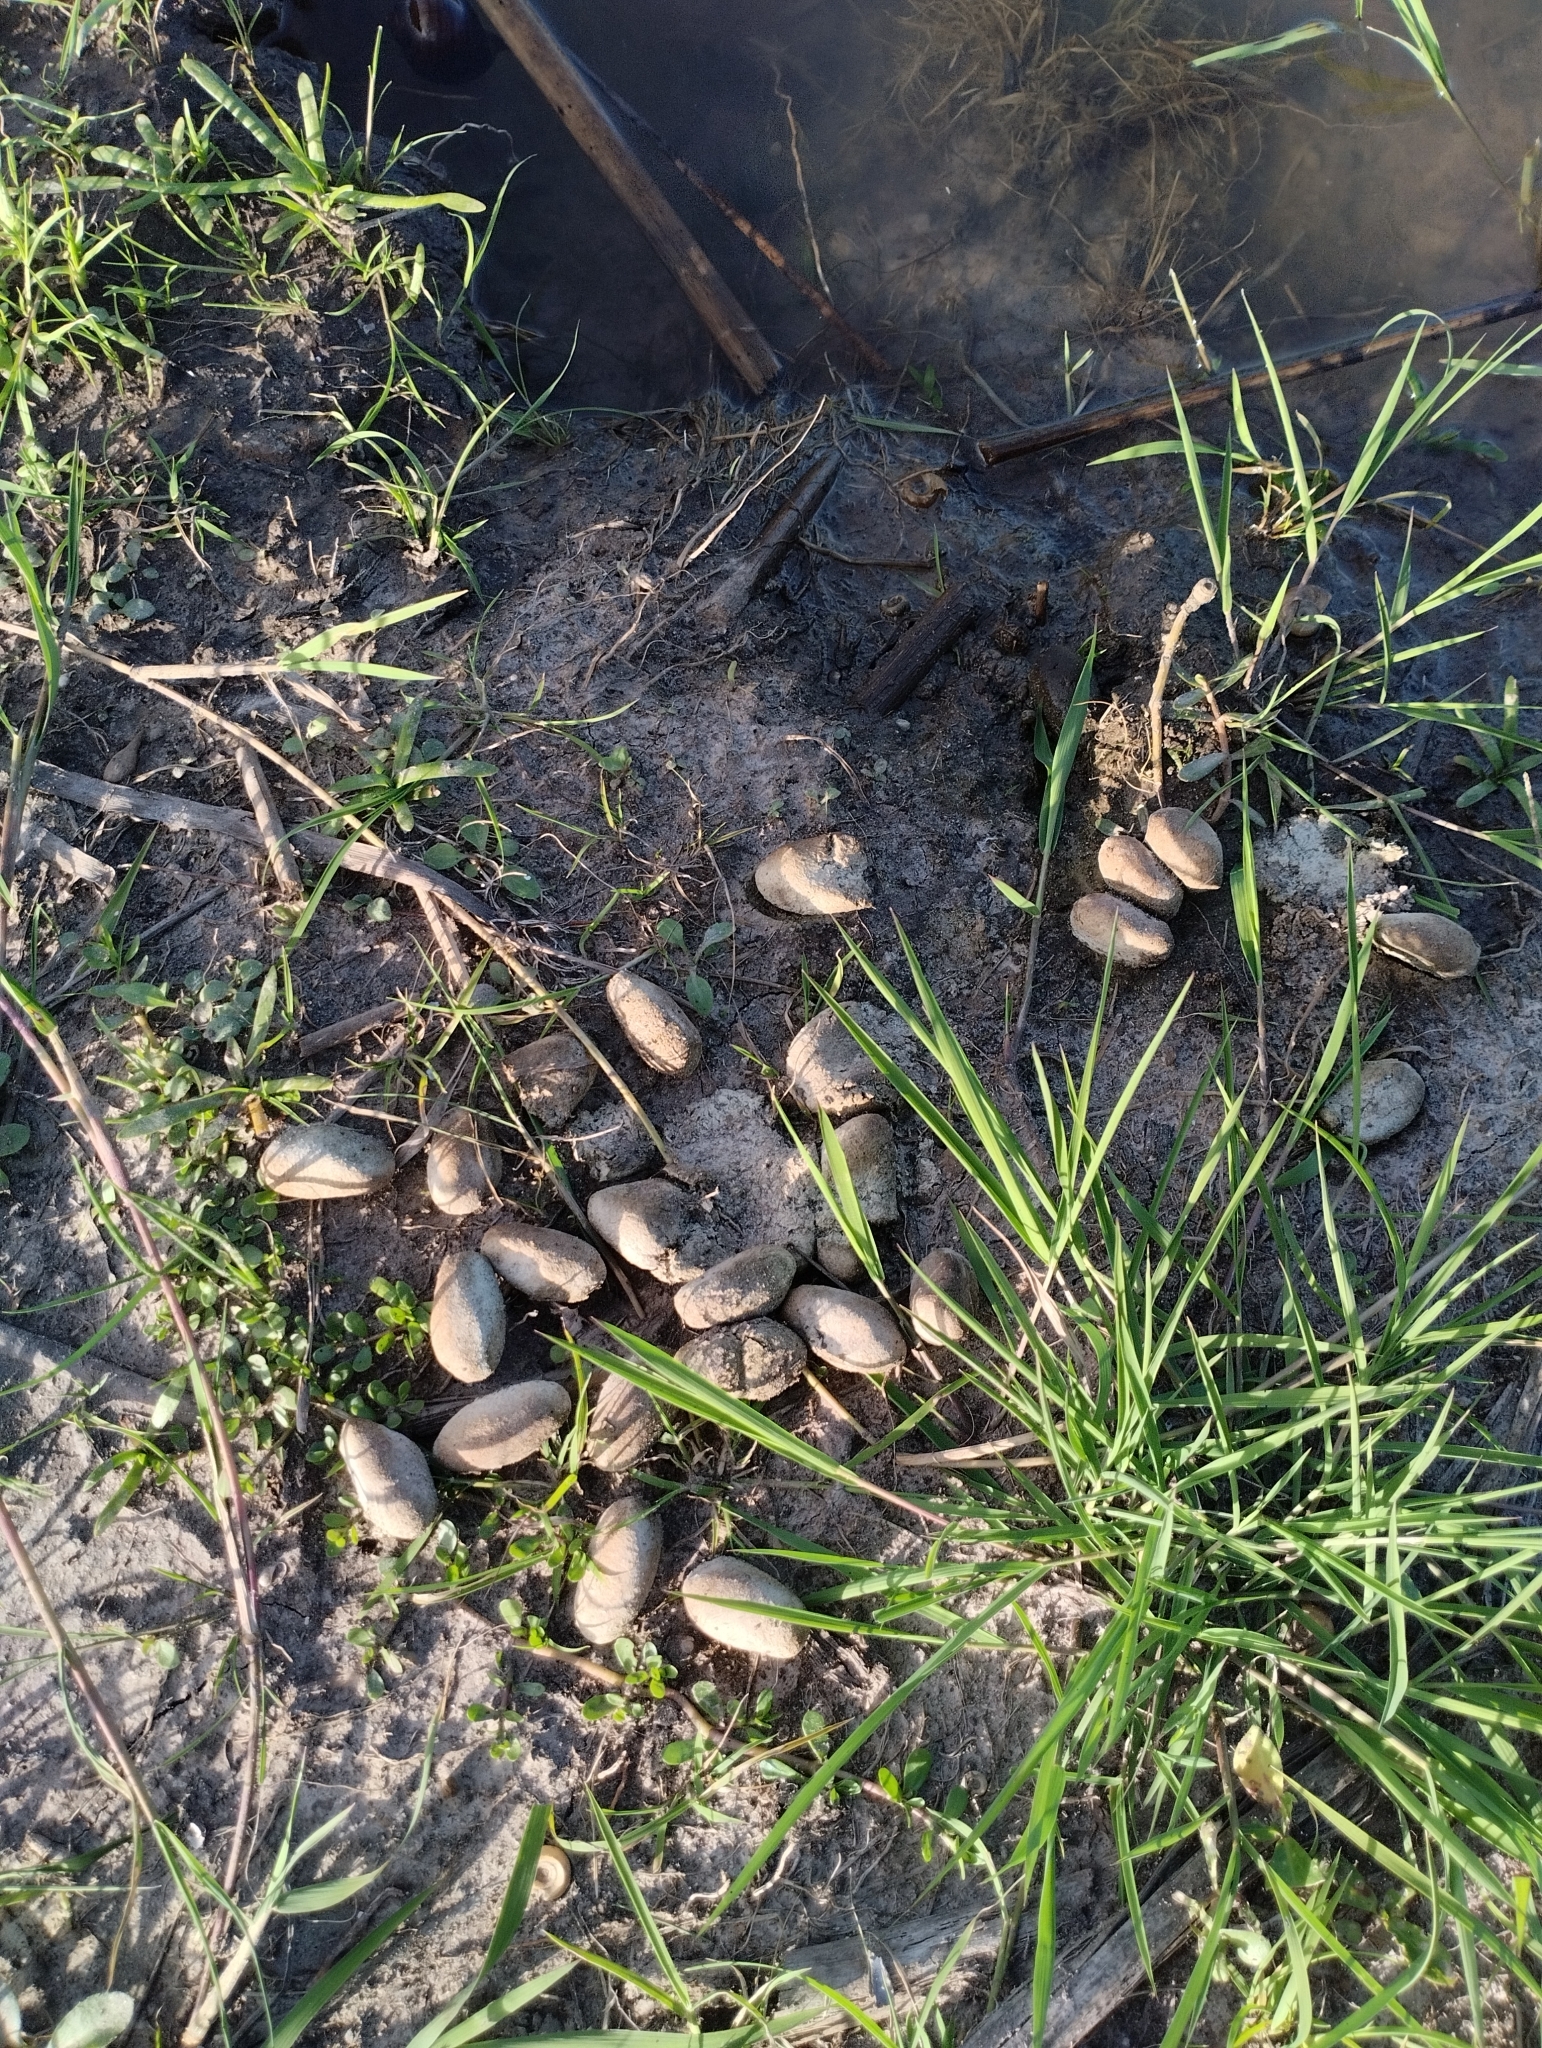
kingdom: Animalia
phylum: Chordata
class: Mammalia
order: Rodentia
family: Caviidae
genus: Hydrochoerus
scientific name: Hydrochoerus hydrochaeris
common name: Capybara
